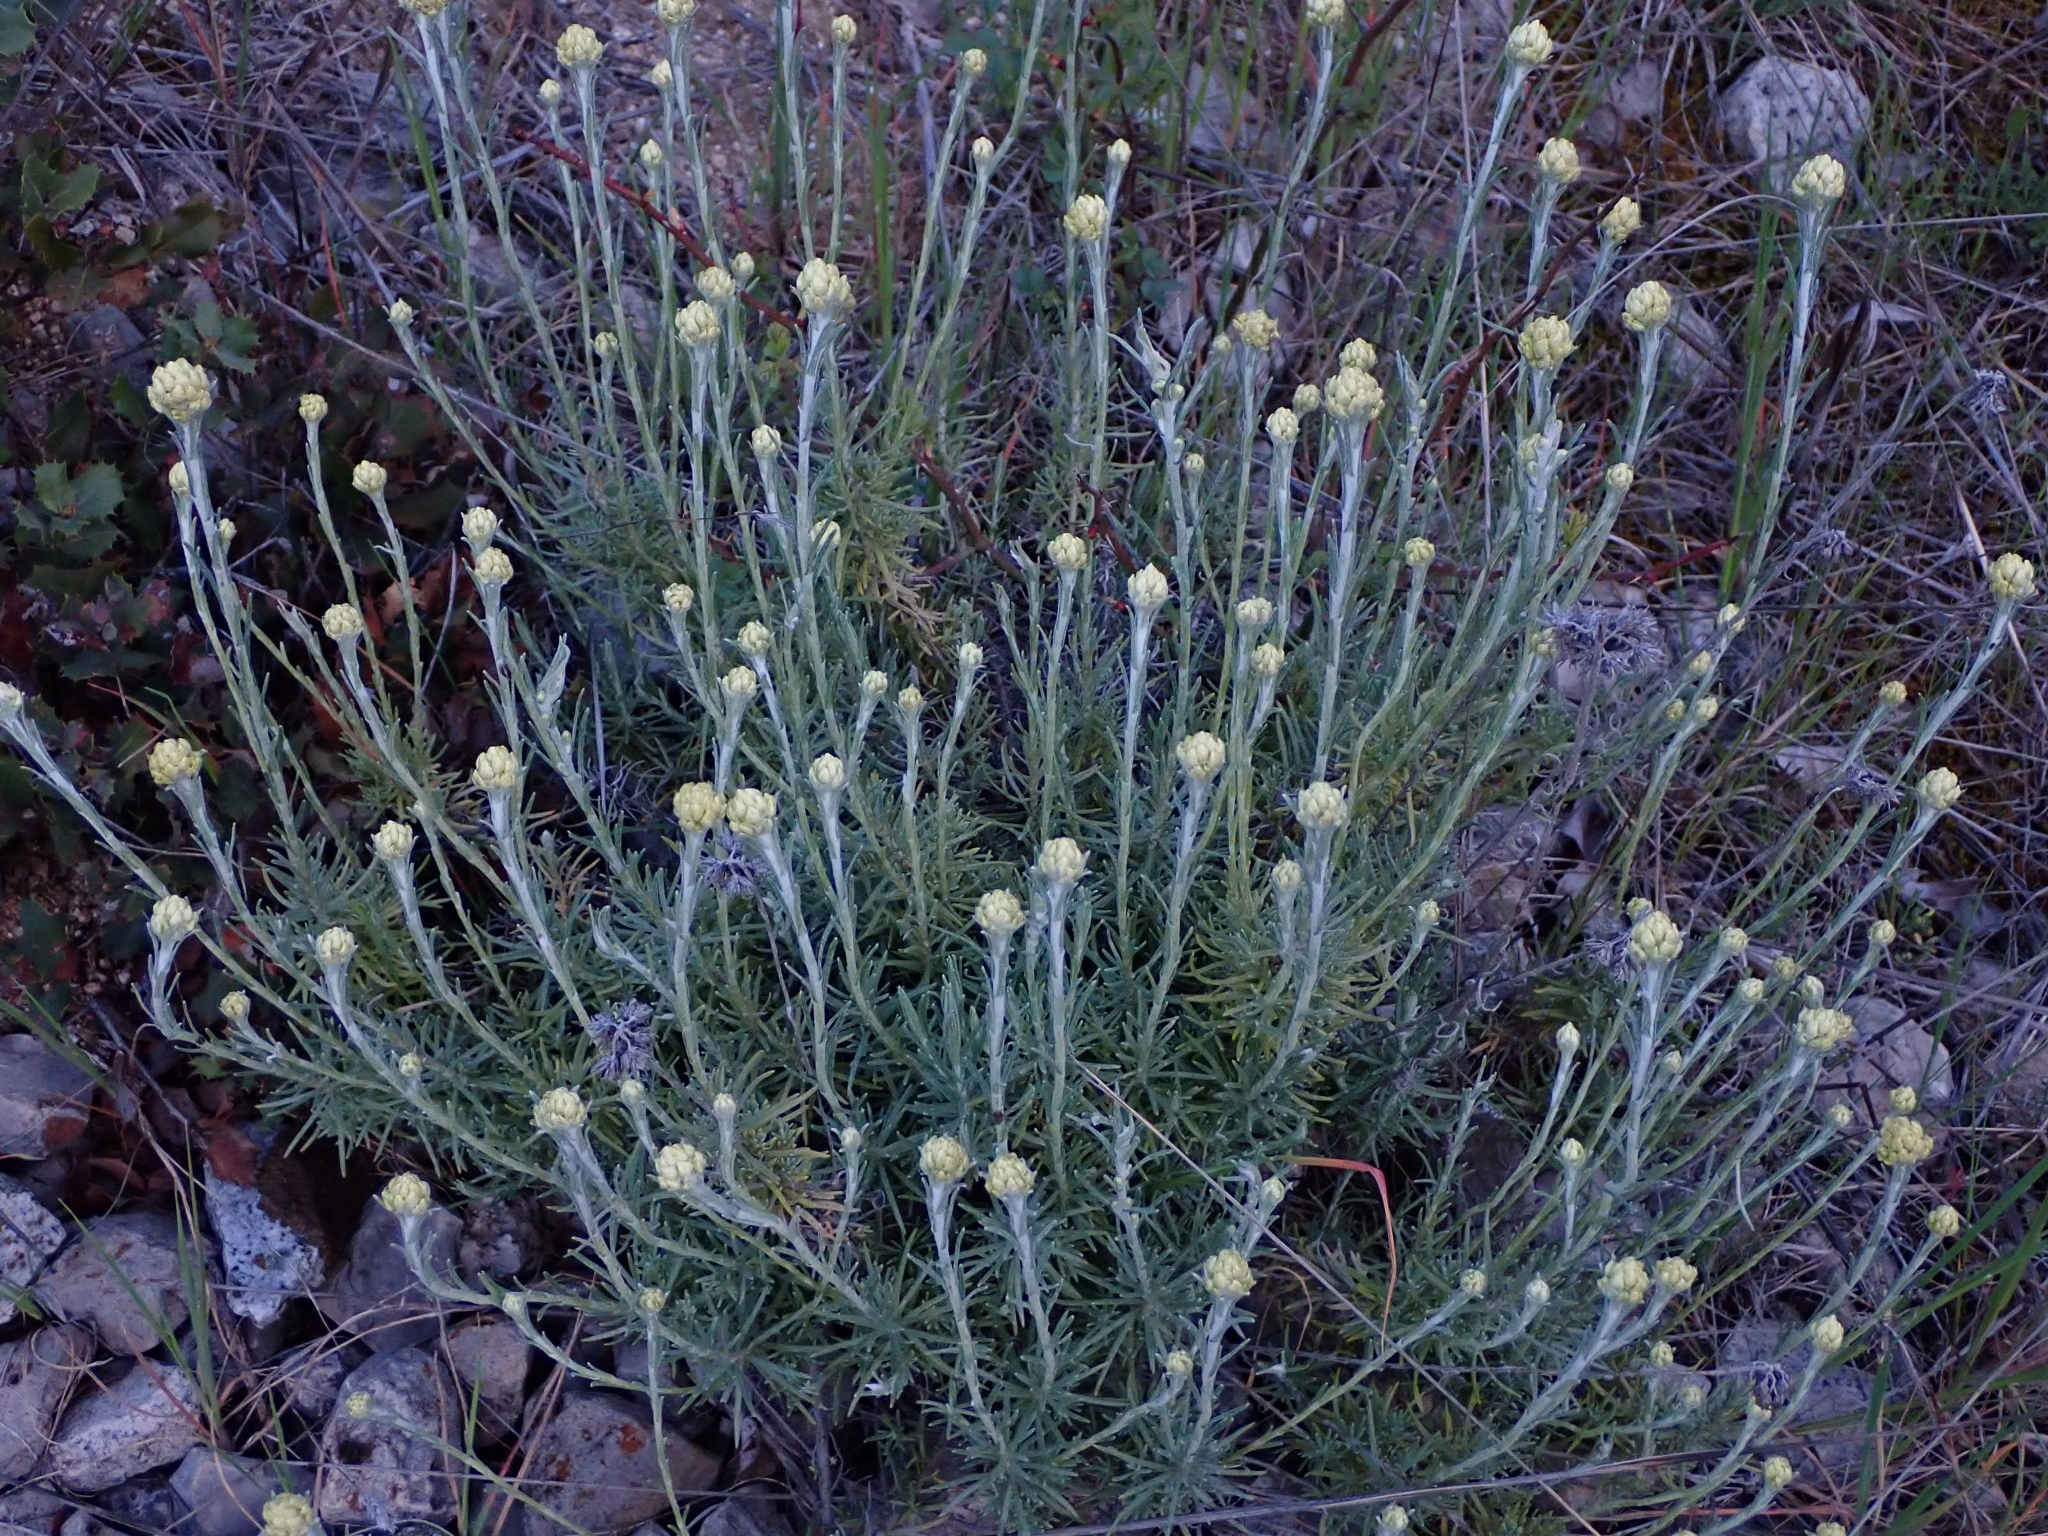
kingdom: Plantae
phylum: Tracheophyta
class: Magnoliopsida
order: Asterales
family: Asteraceae
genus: Helichrysum
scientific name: Helichrysum stoechas
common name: Goldilocks
